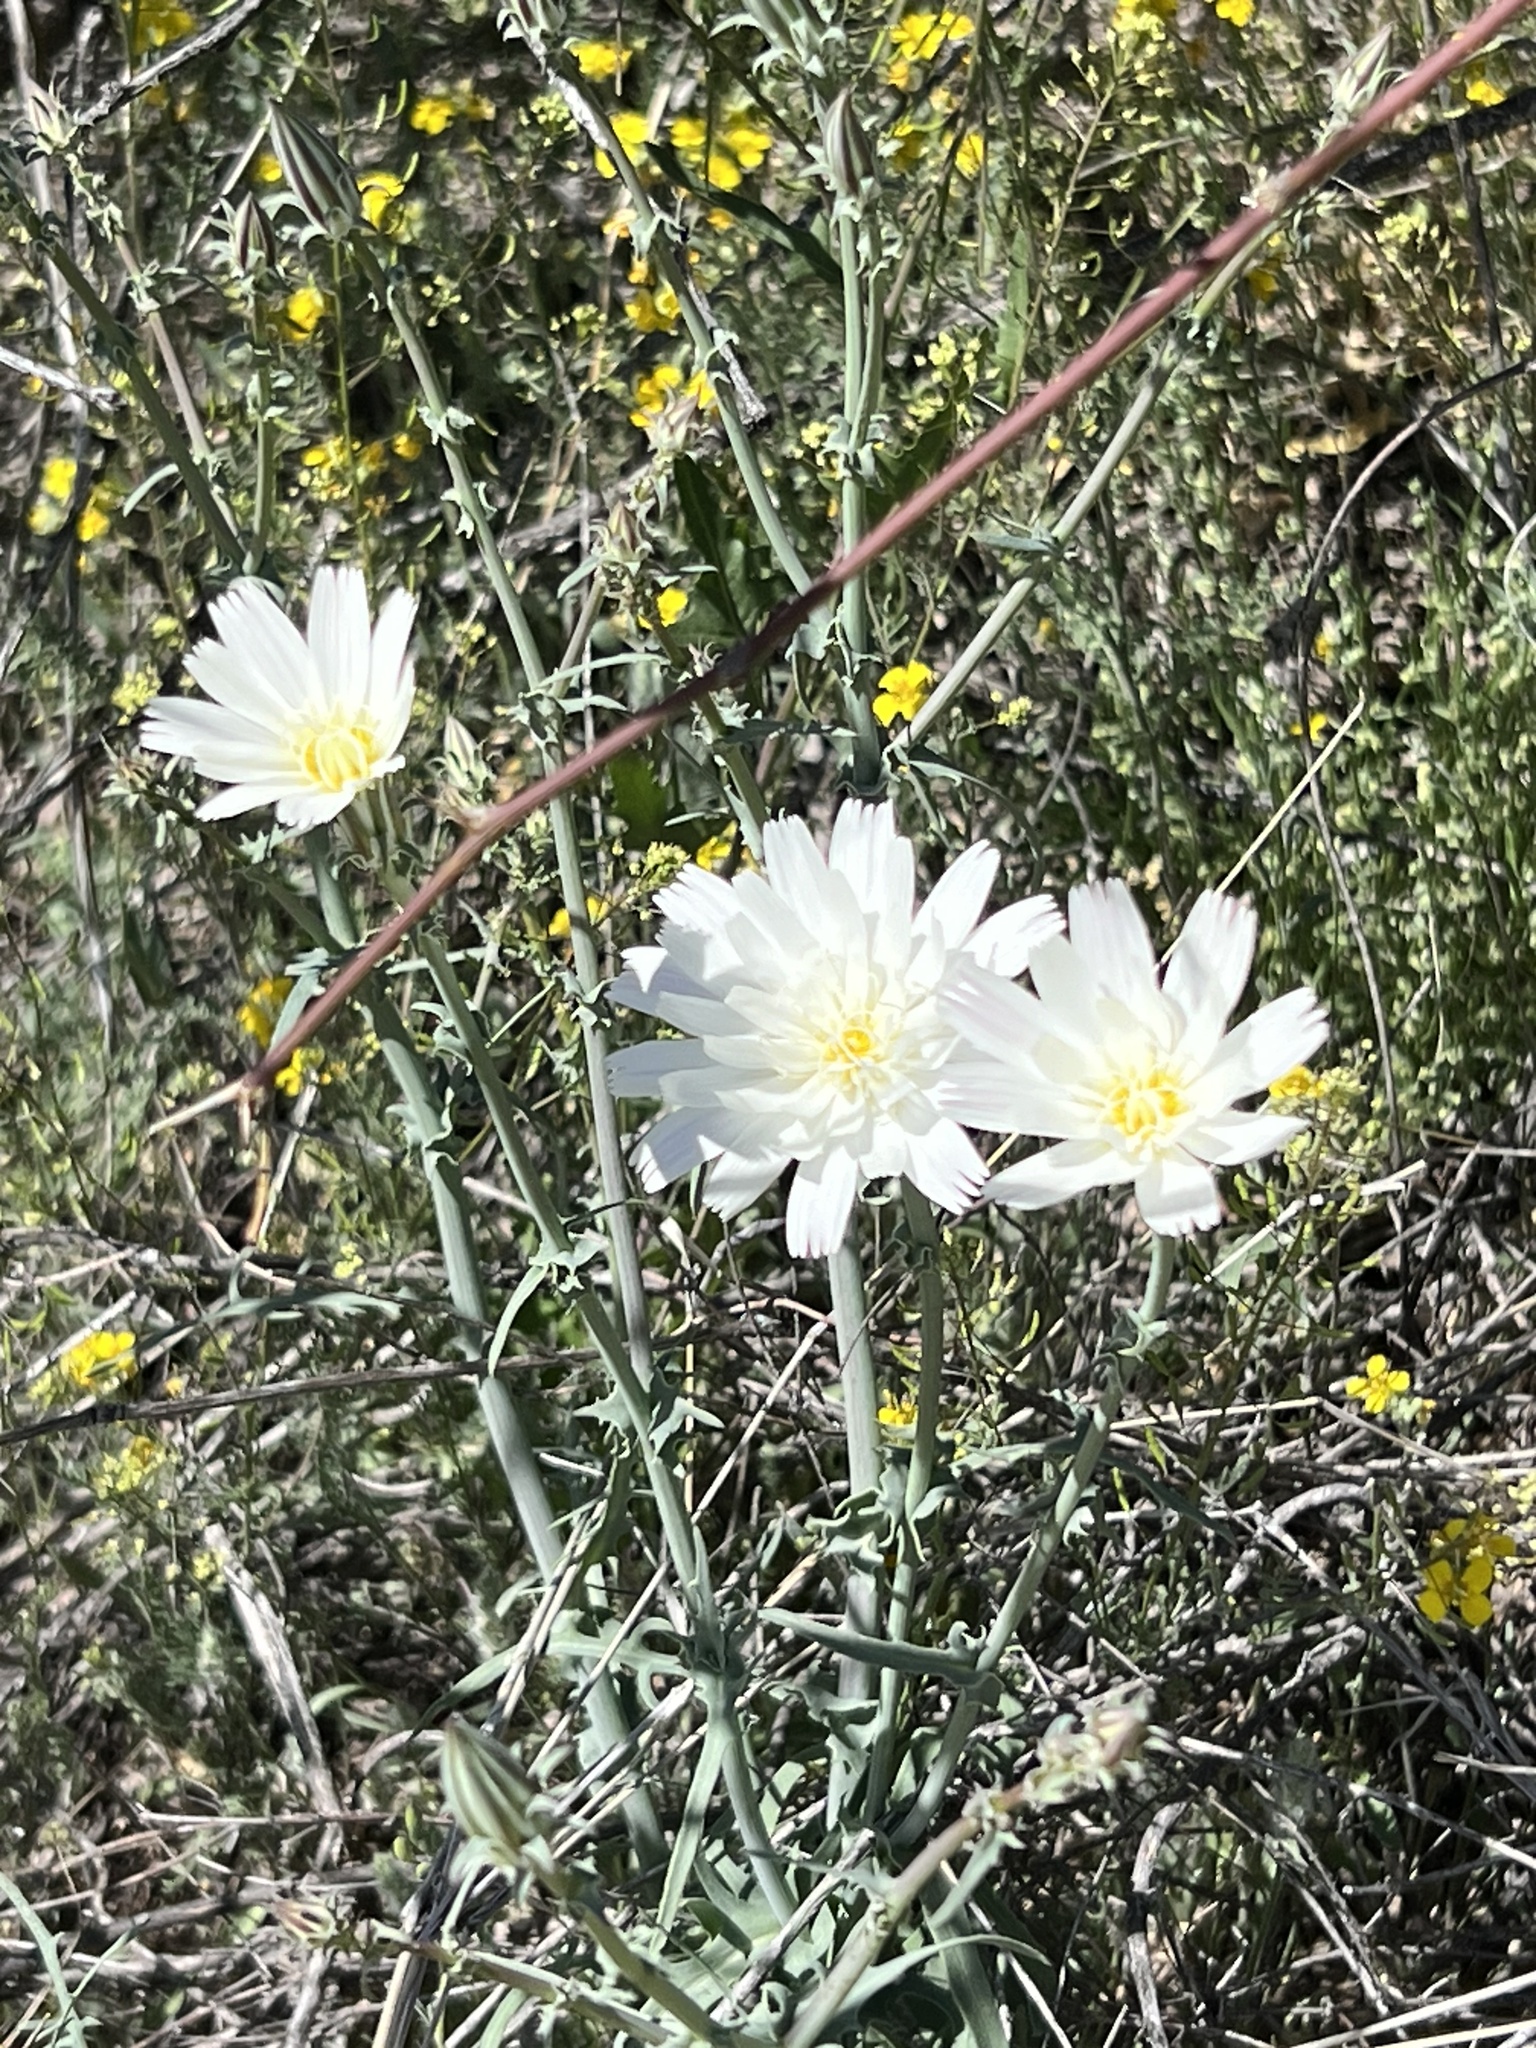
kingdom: Plantae
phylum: Tracheophyta
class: Magnoliopsida
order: Asterales
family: Asteraceae
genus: Rafinesquia
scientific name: Rafinesquia neomexicana
